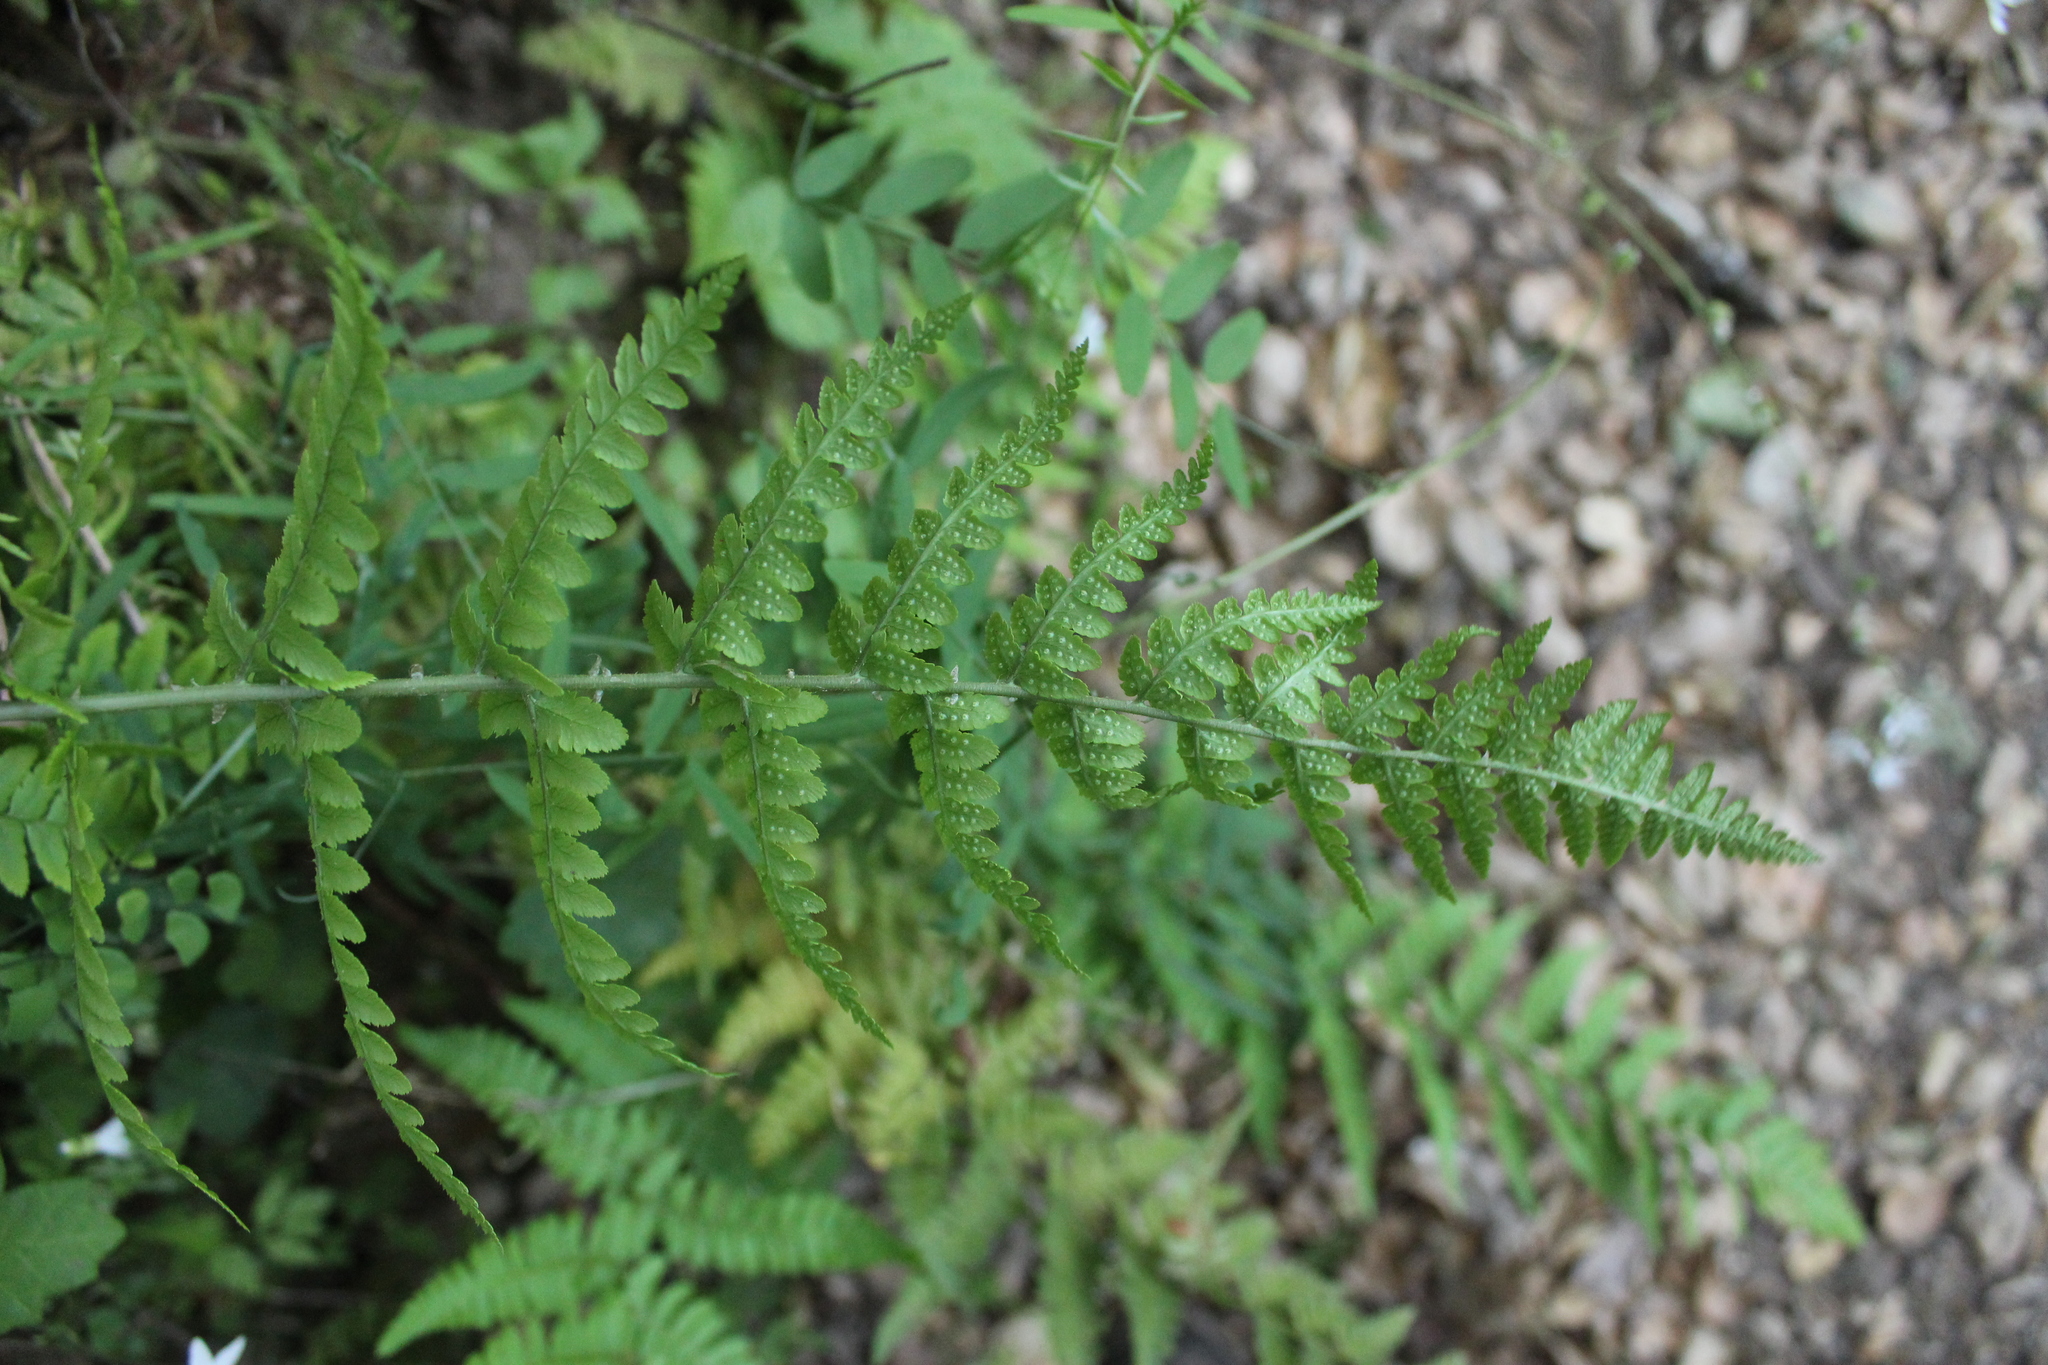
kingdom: Plantae
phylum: Tracheophyta
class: Polypodiopsida
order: Polypodiales
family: Dryopteridaceae
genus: Dryopteris
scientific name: Dryopteris arguta
